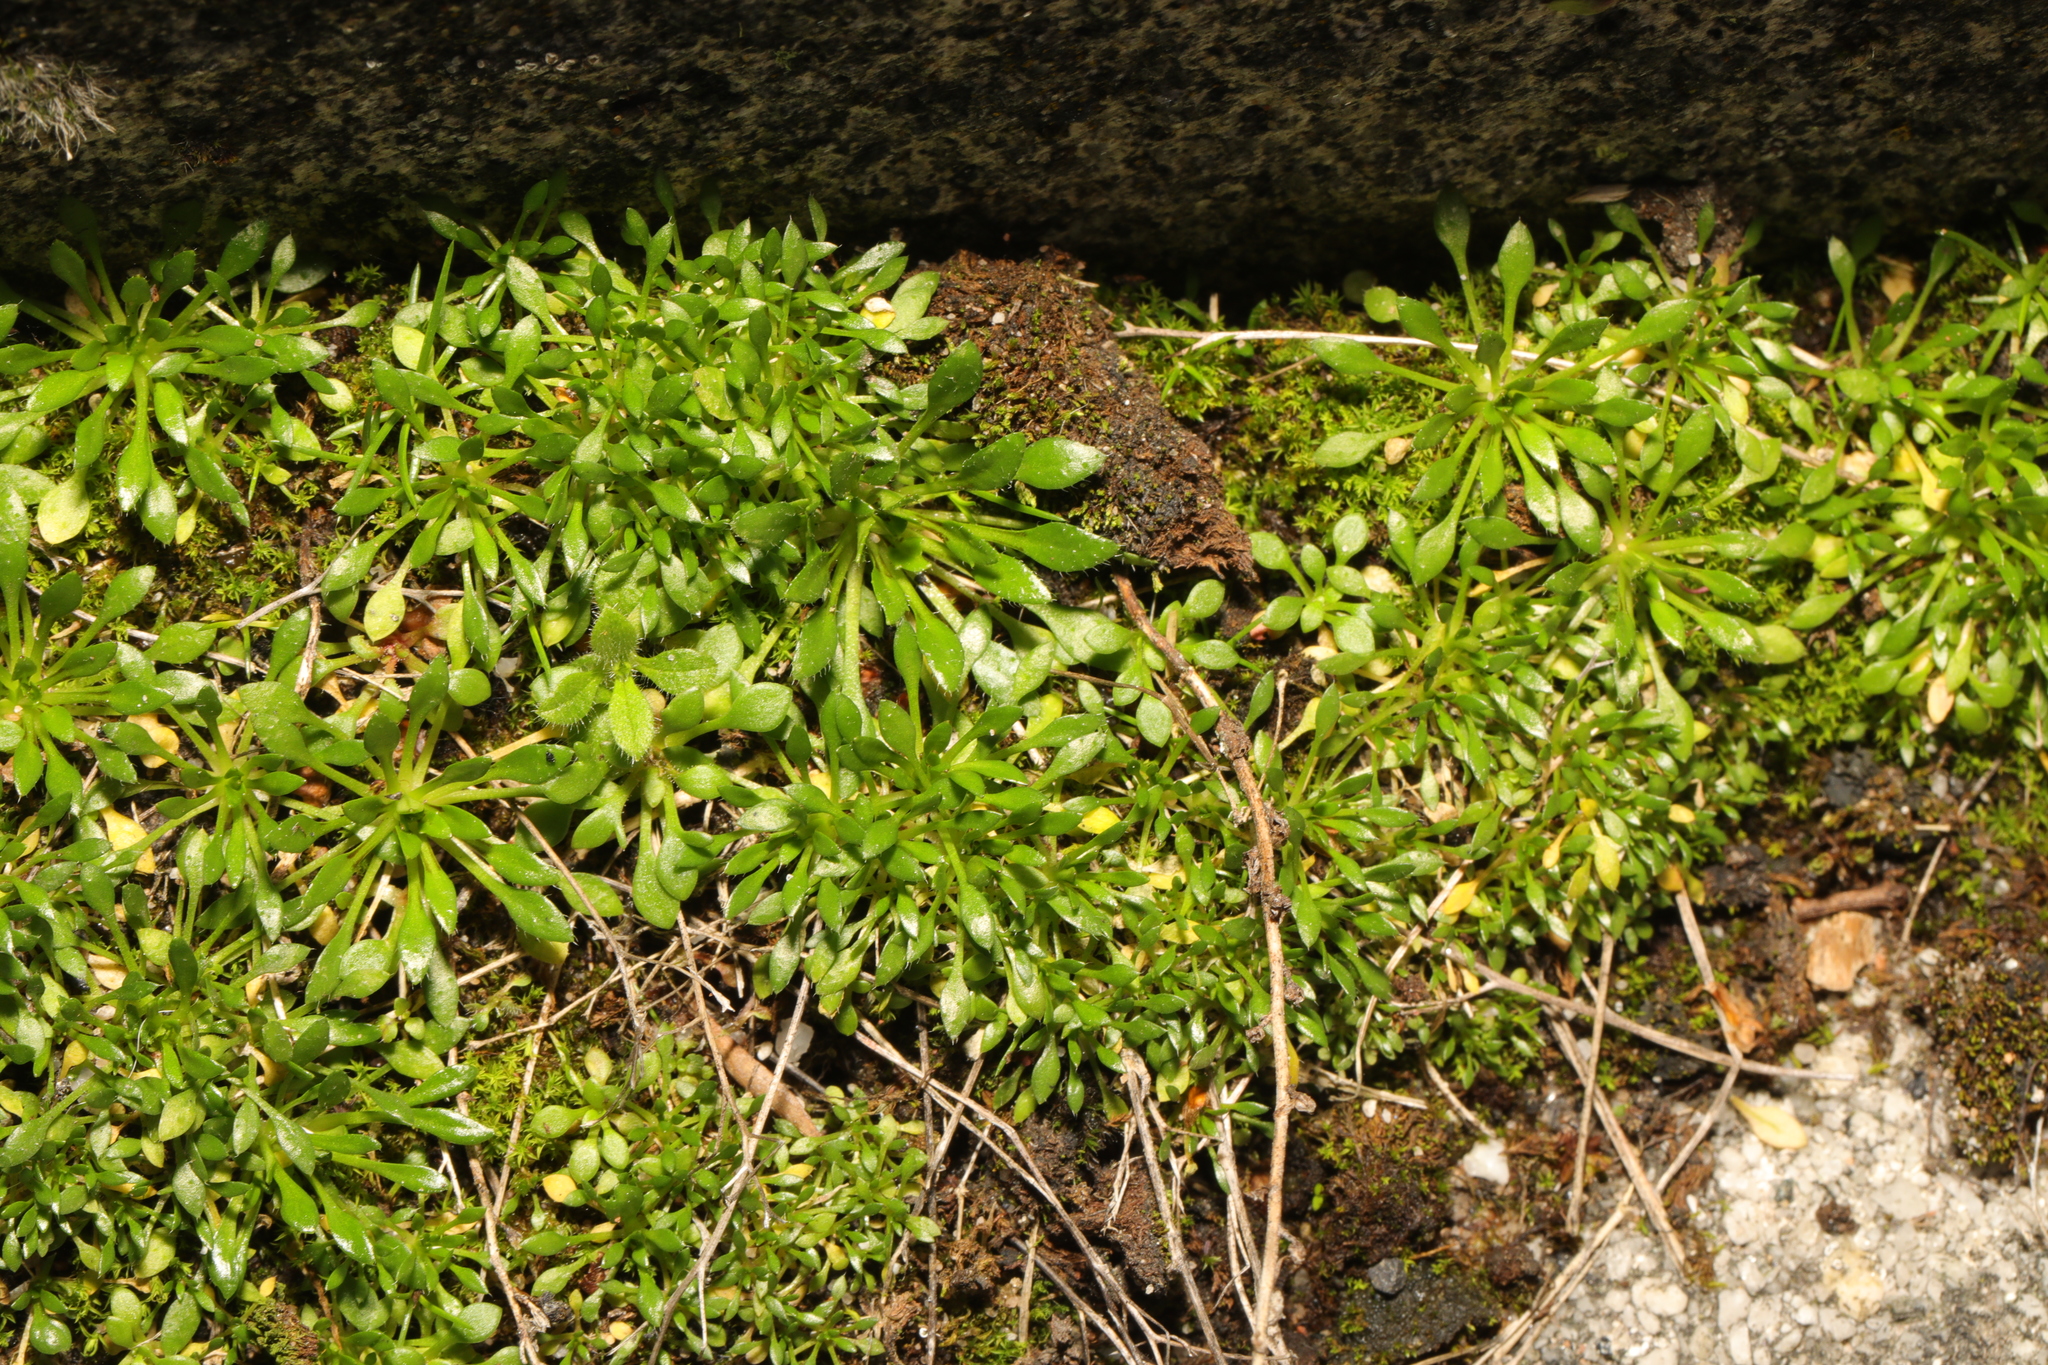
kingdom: Plantae
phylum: Tracheophyta
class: Magnoliopsida
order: Brassicales
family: Brassicaceae
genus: Draba
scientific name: Draba verna
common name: Spring draba
